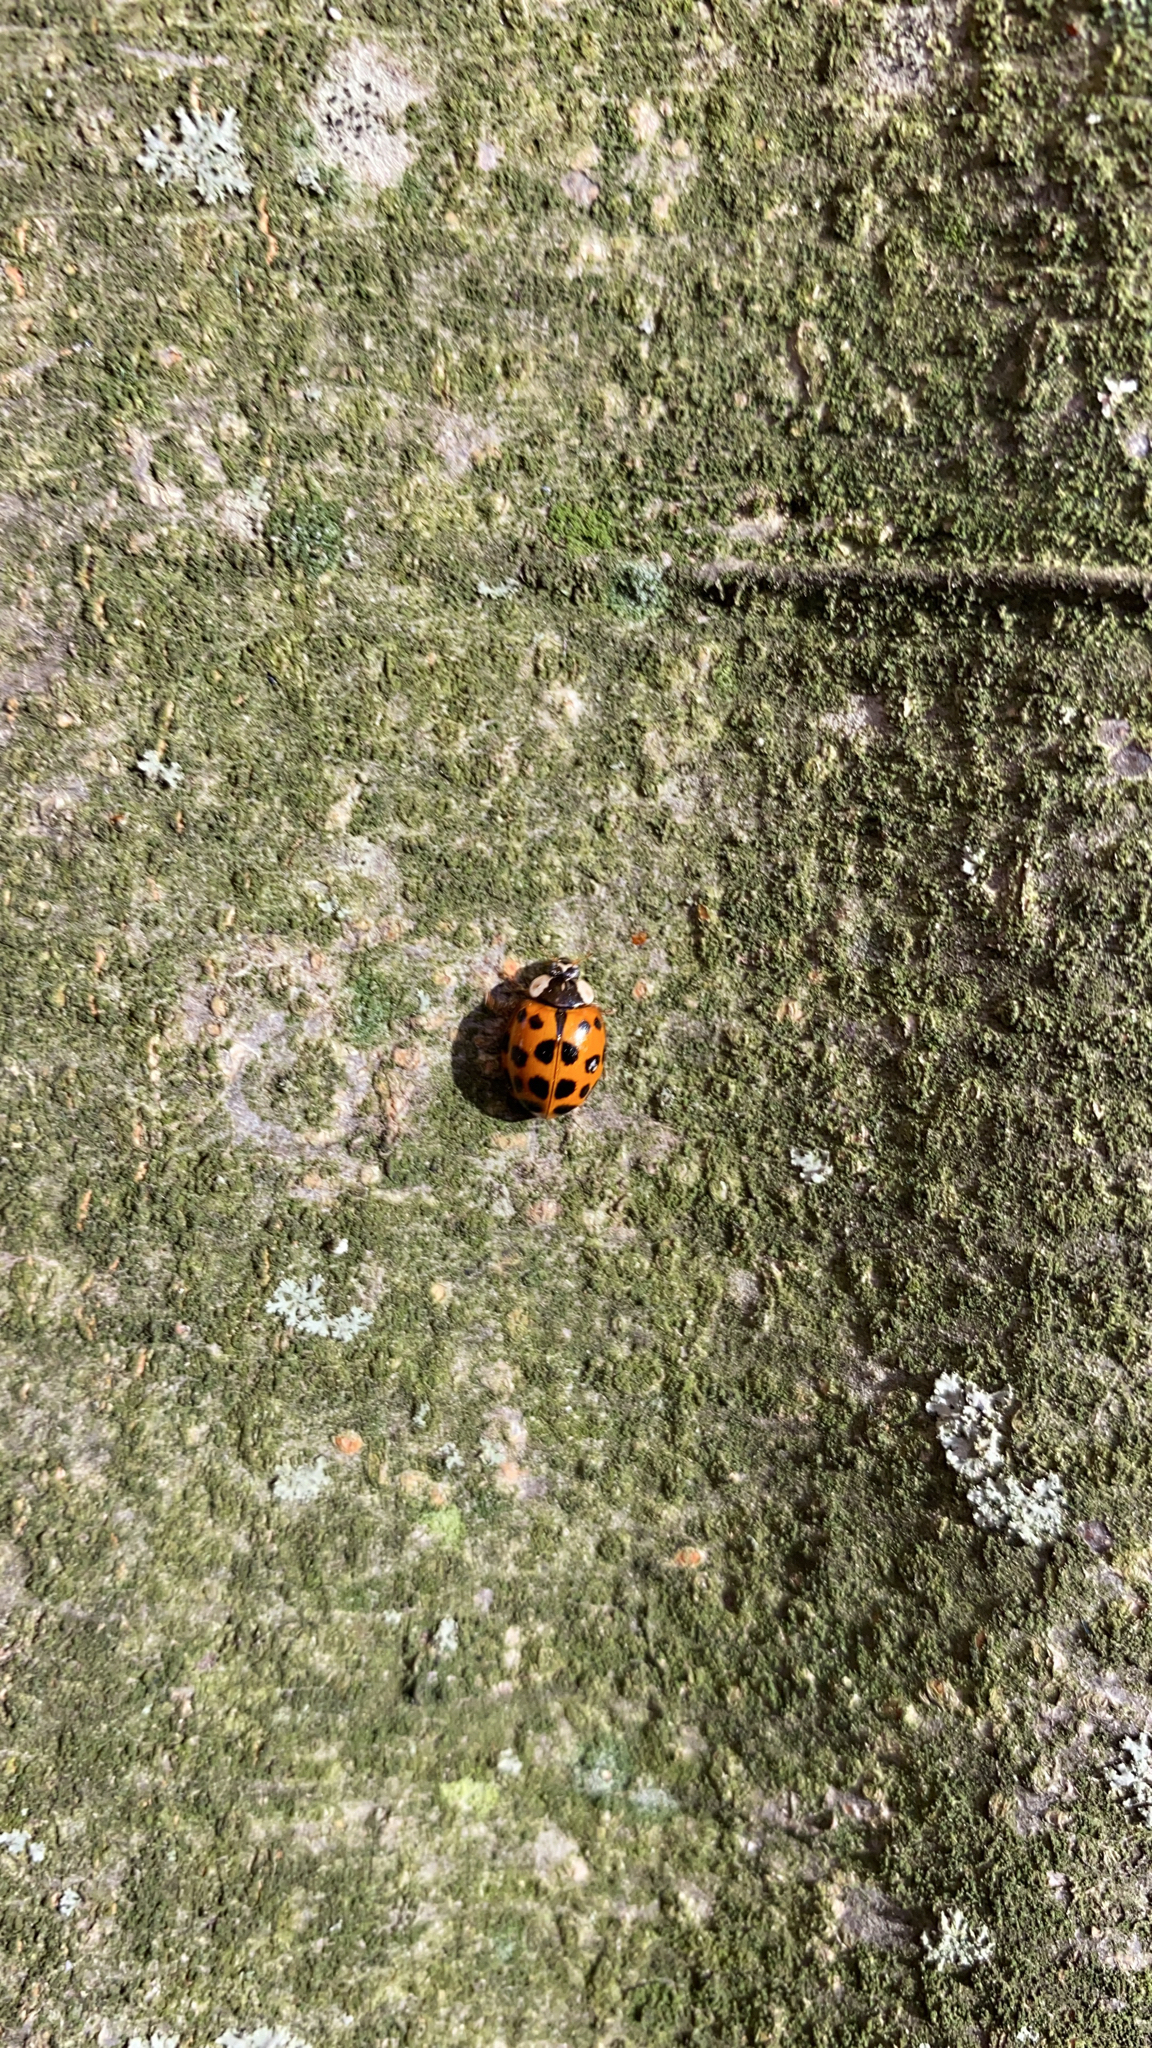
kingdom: Animalia
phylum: Arthropoda
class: Insecta
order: Coleoptera
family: Coccinellidae
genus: Harmonia
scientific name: Harmonia axyridis
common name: Harlequin ladybird
